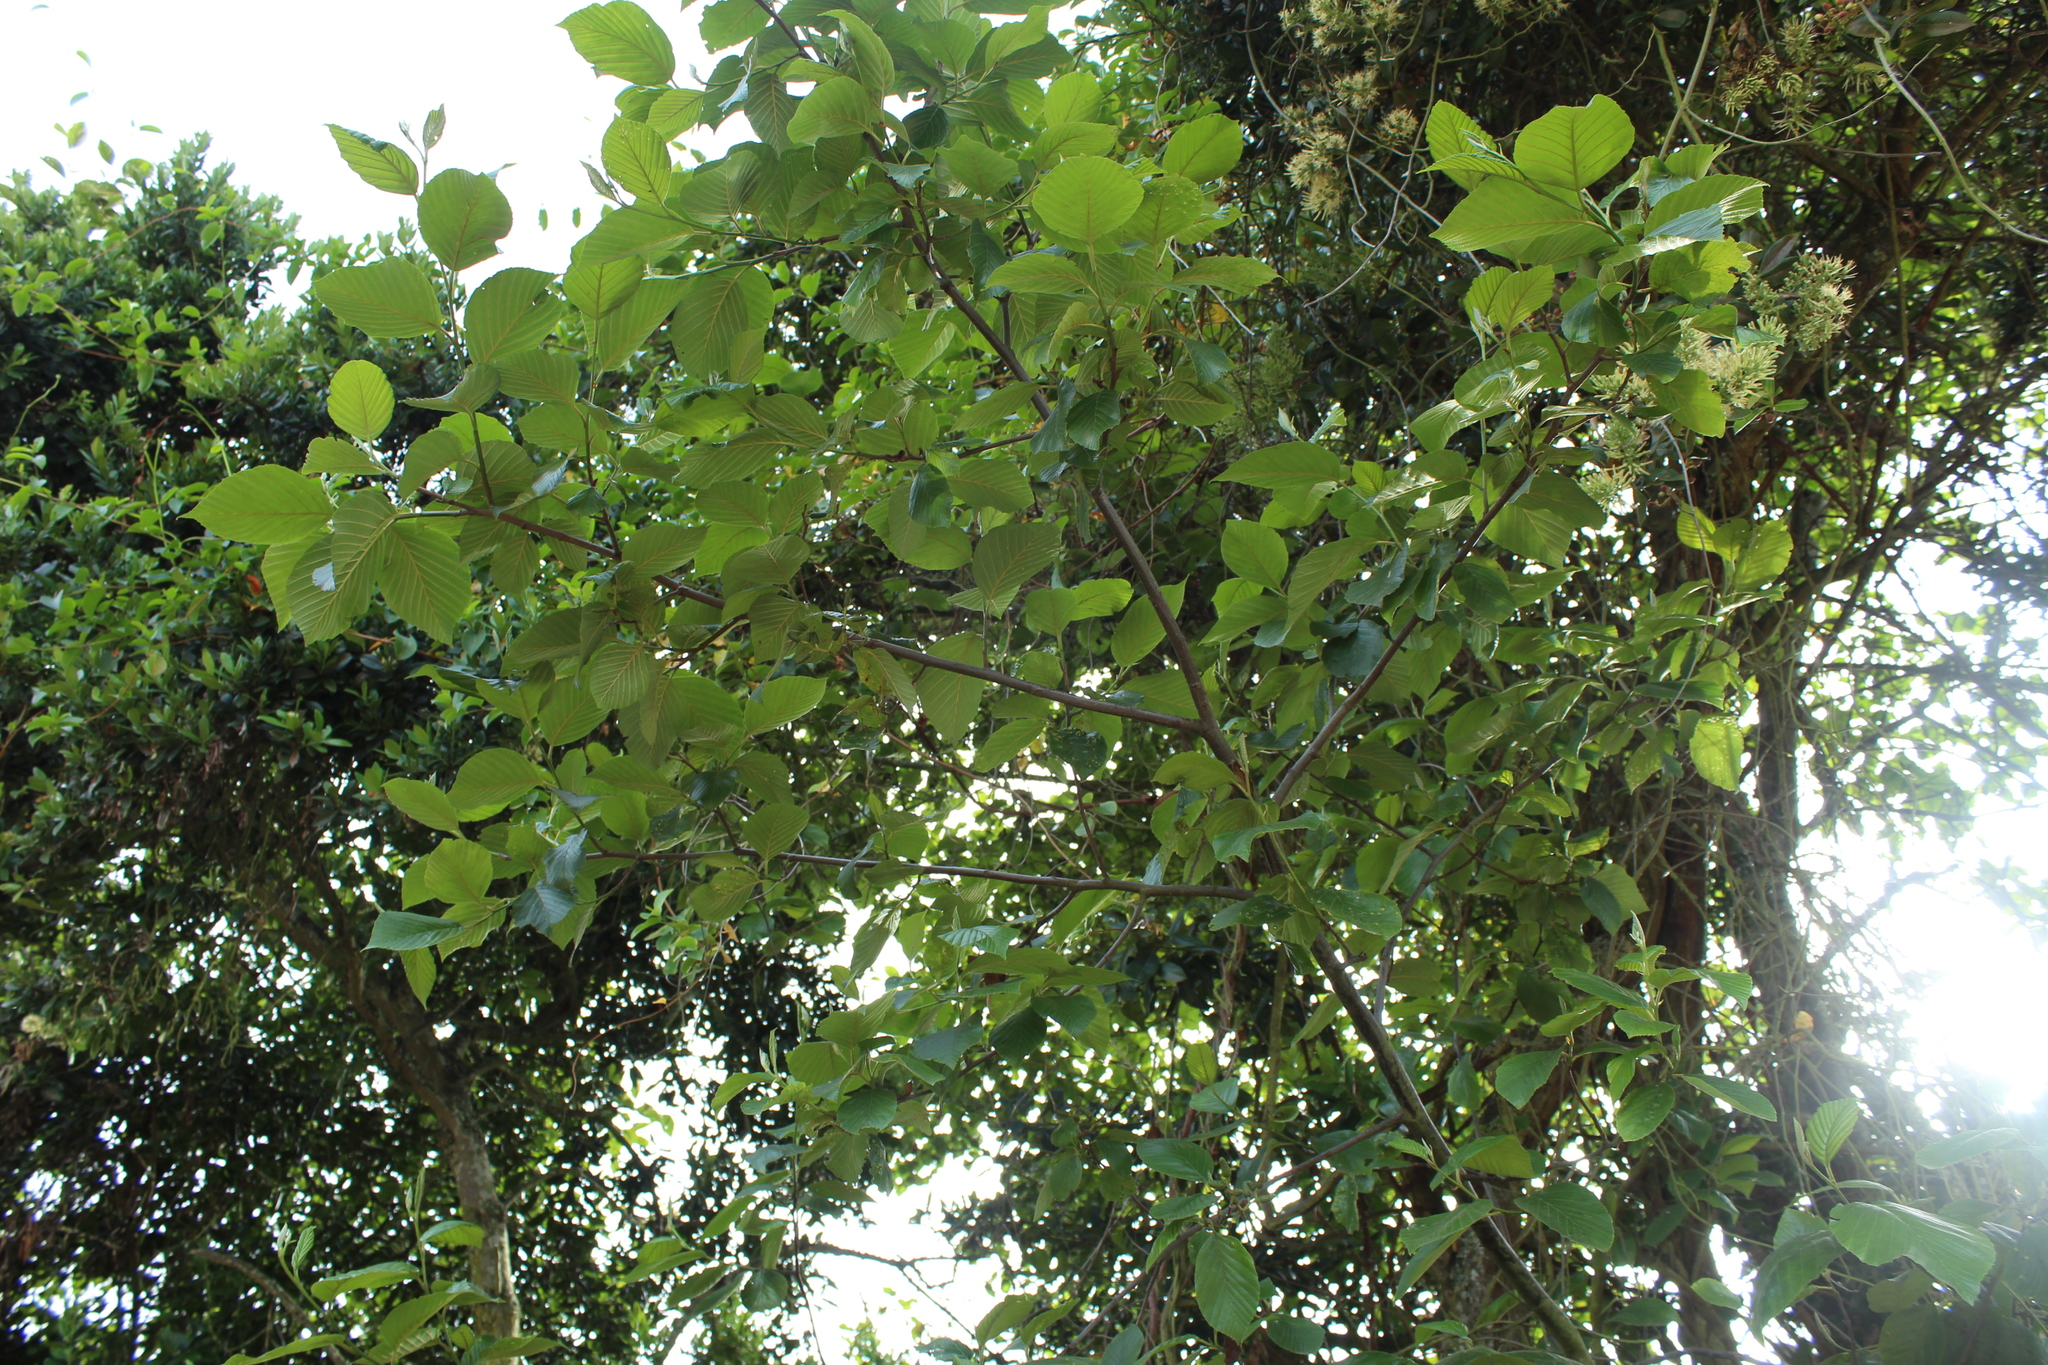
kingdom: Plantae
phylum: Tracheophyta
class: Magnoliopsida
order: Fagales
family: Betulaceae
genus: Alnus
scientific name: Alnus acuminata
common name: Alder
